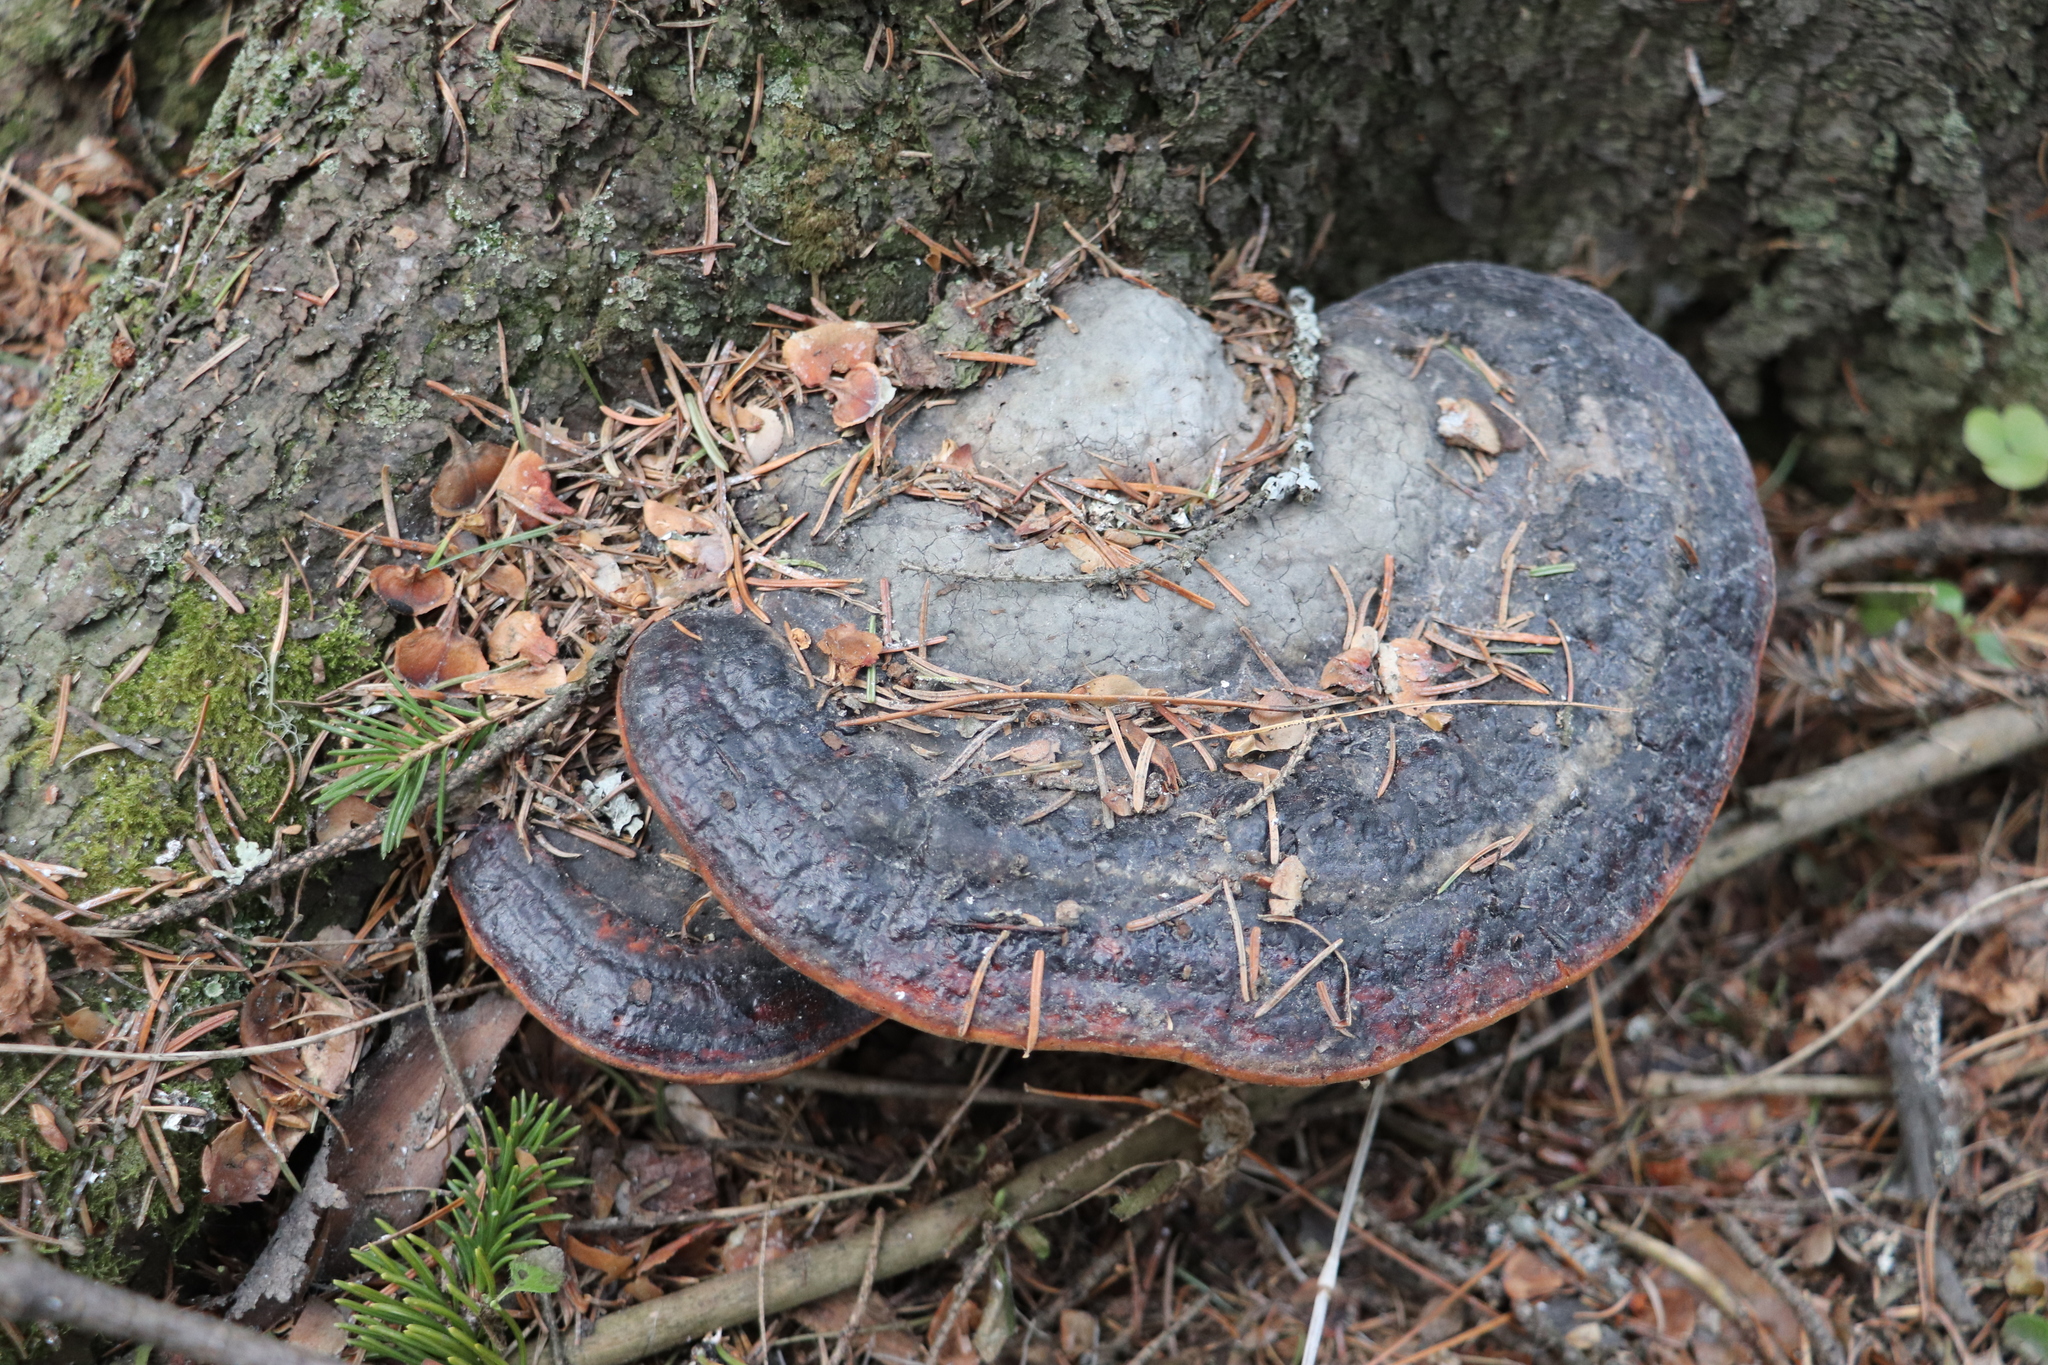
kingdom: Fungi
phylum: Basidiomycota
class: Agaricomycetes
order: Polyporales
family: Fomitopsidaceae
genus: Fomitopsis
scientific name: Fomitopsis pinicola
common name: Red-belted bracket
